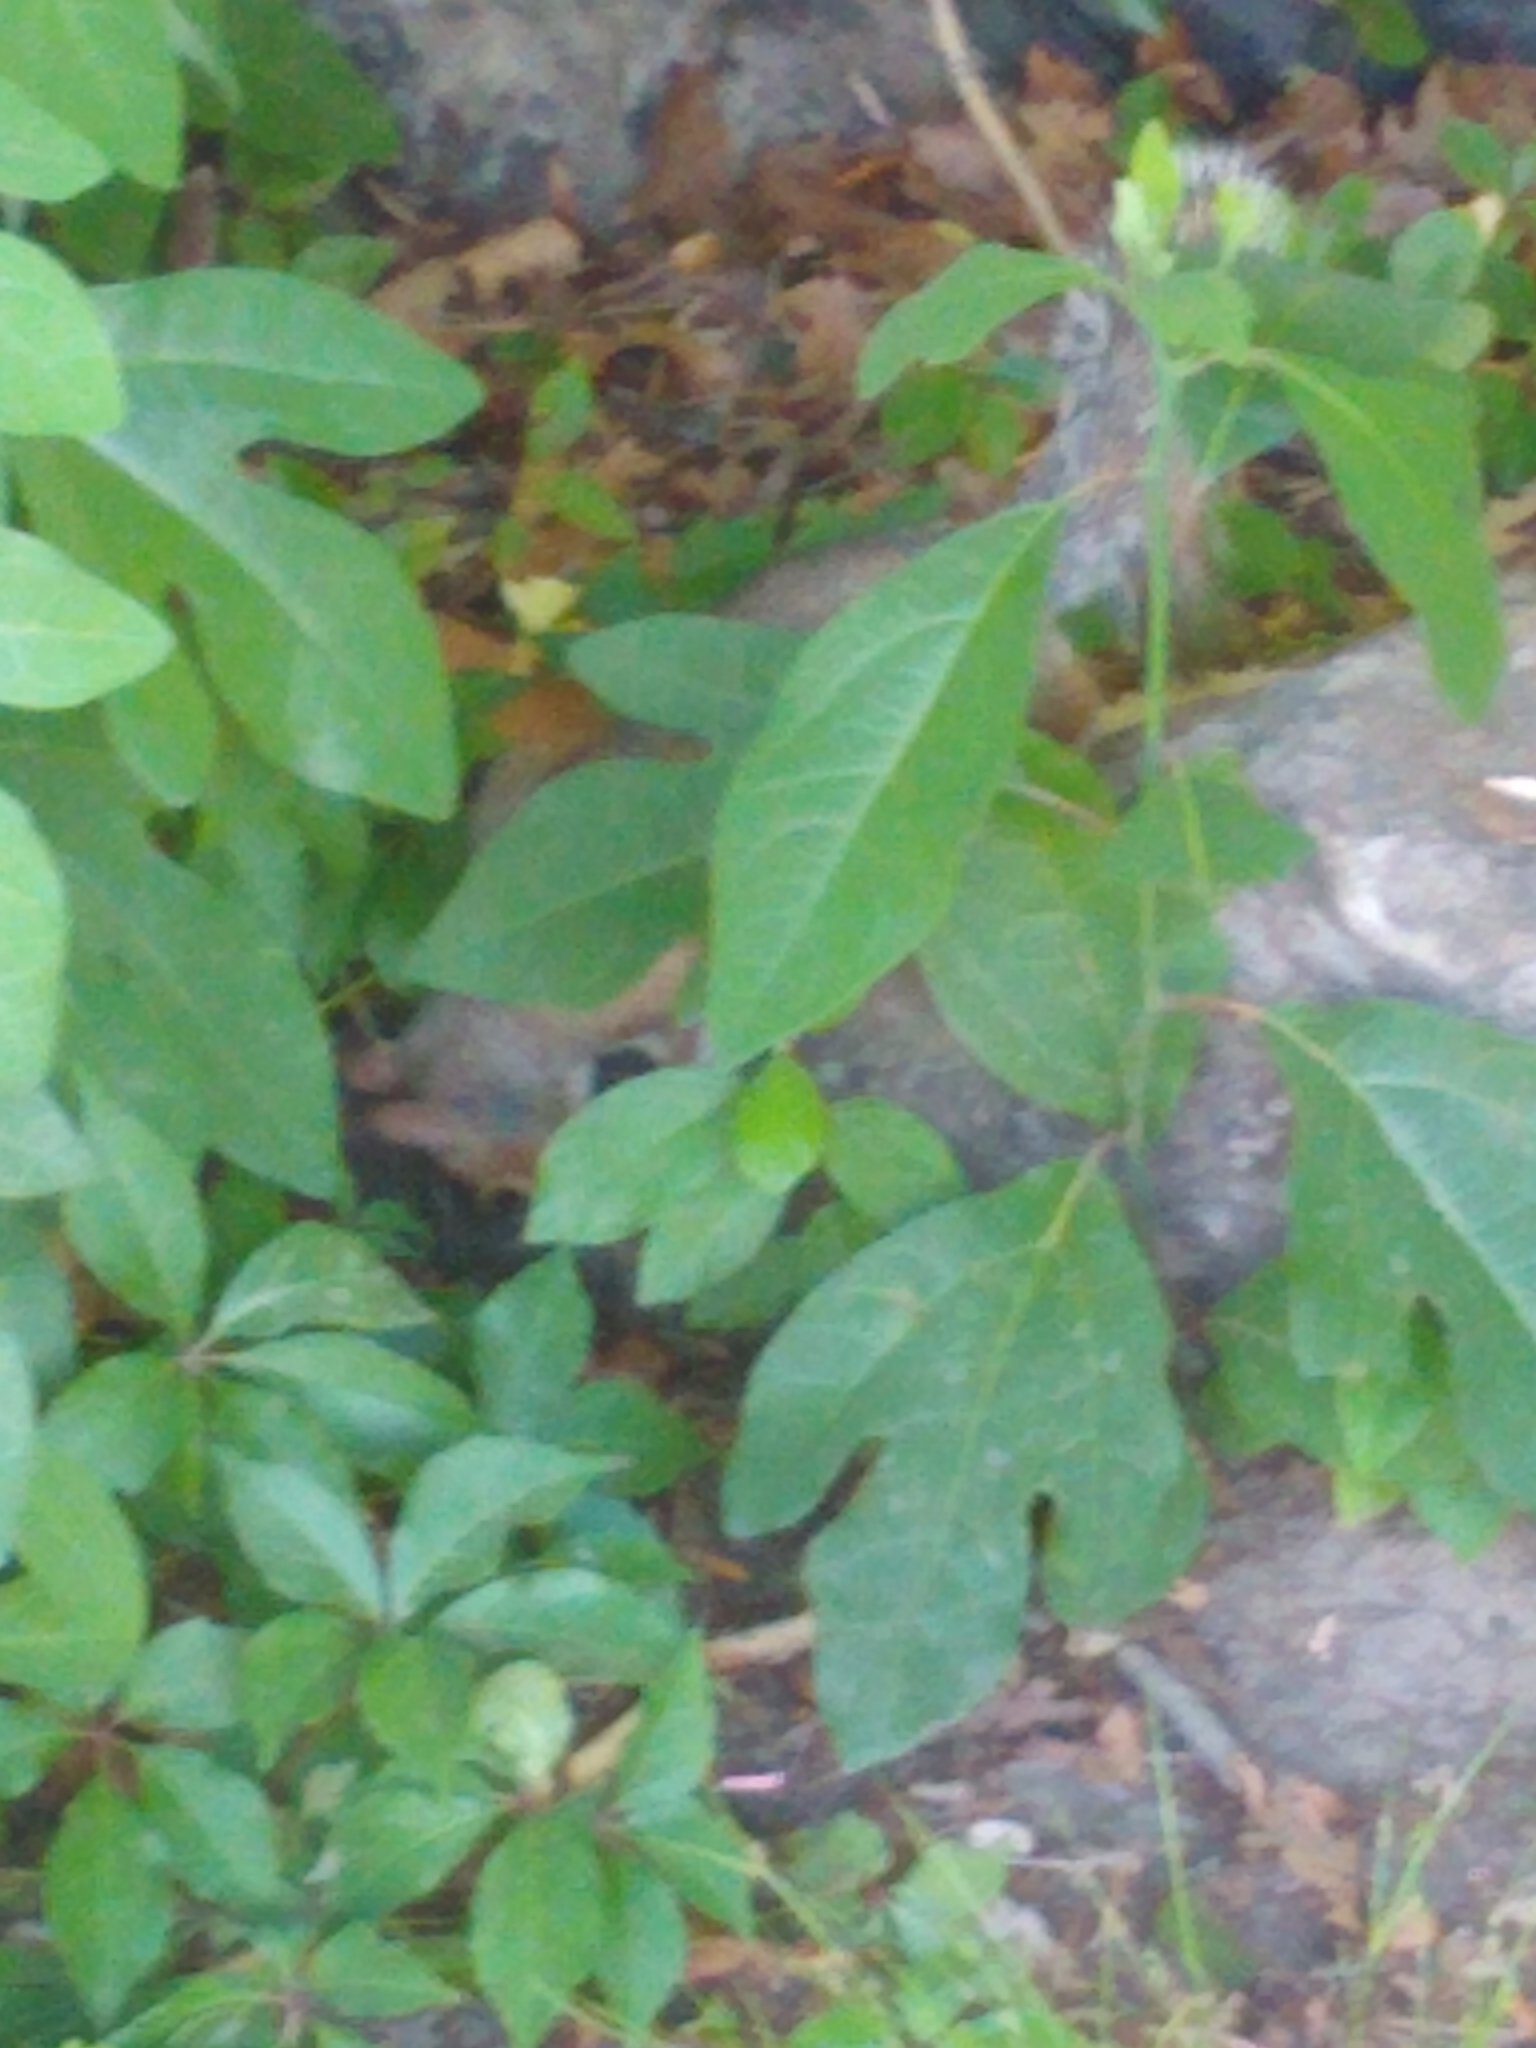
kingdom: Animalia
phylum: Chordata
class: Mammalia
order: Rodentia
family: Sciuridae
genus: Sciurus
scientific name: Sciurus carolinensis
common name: Eastern gray squirrel
